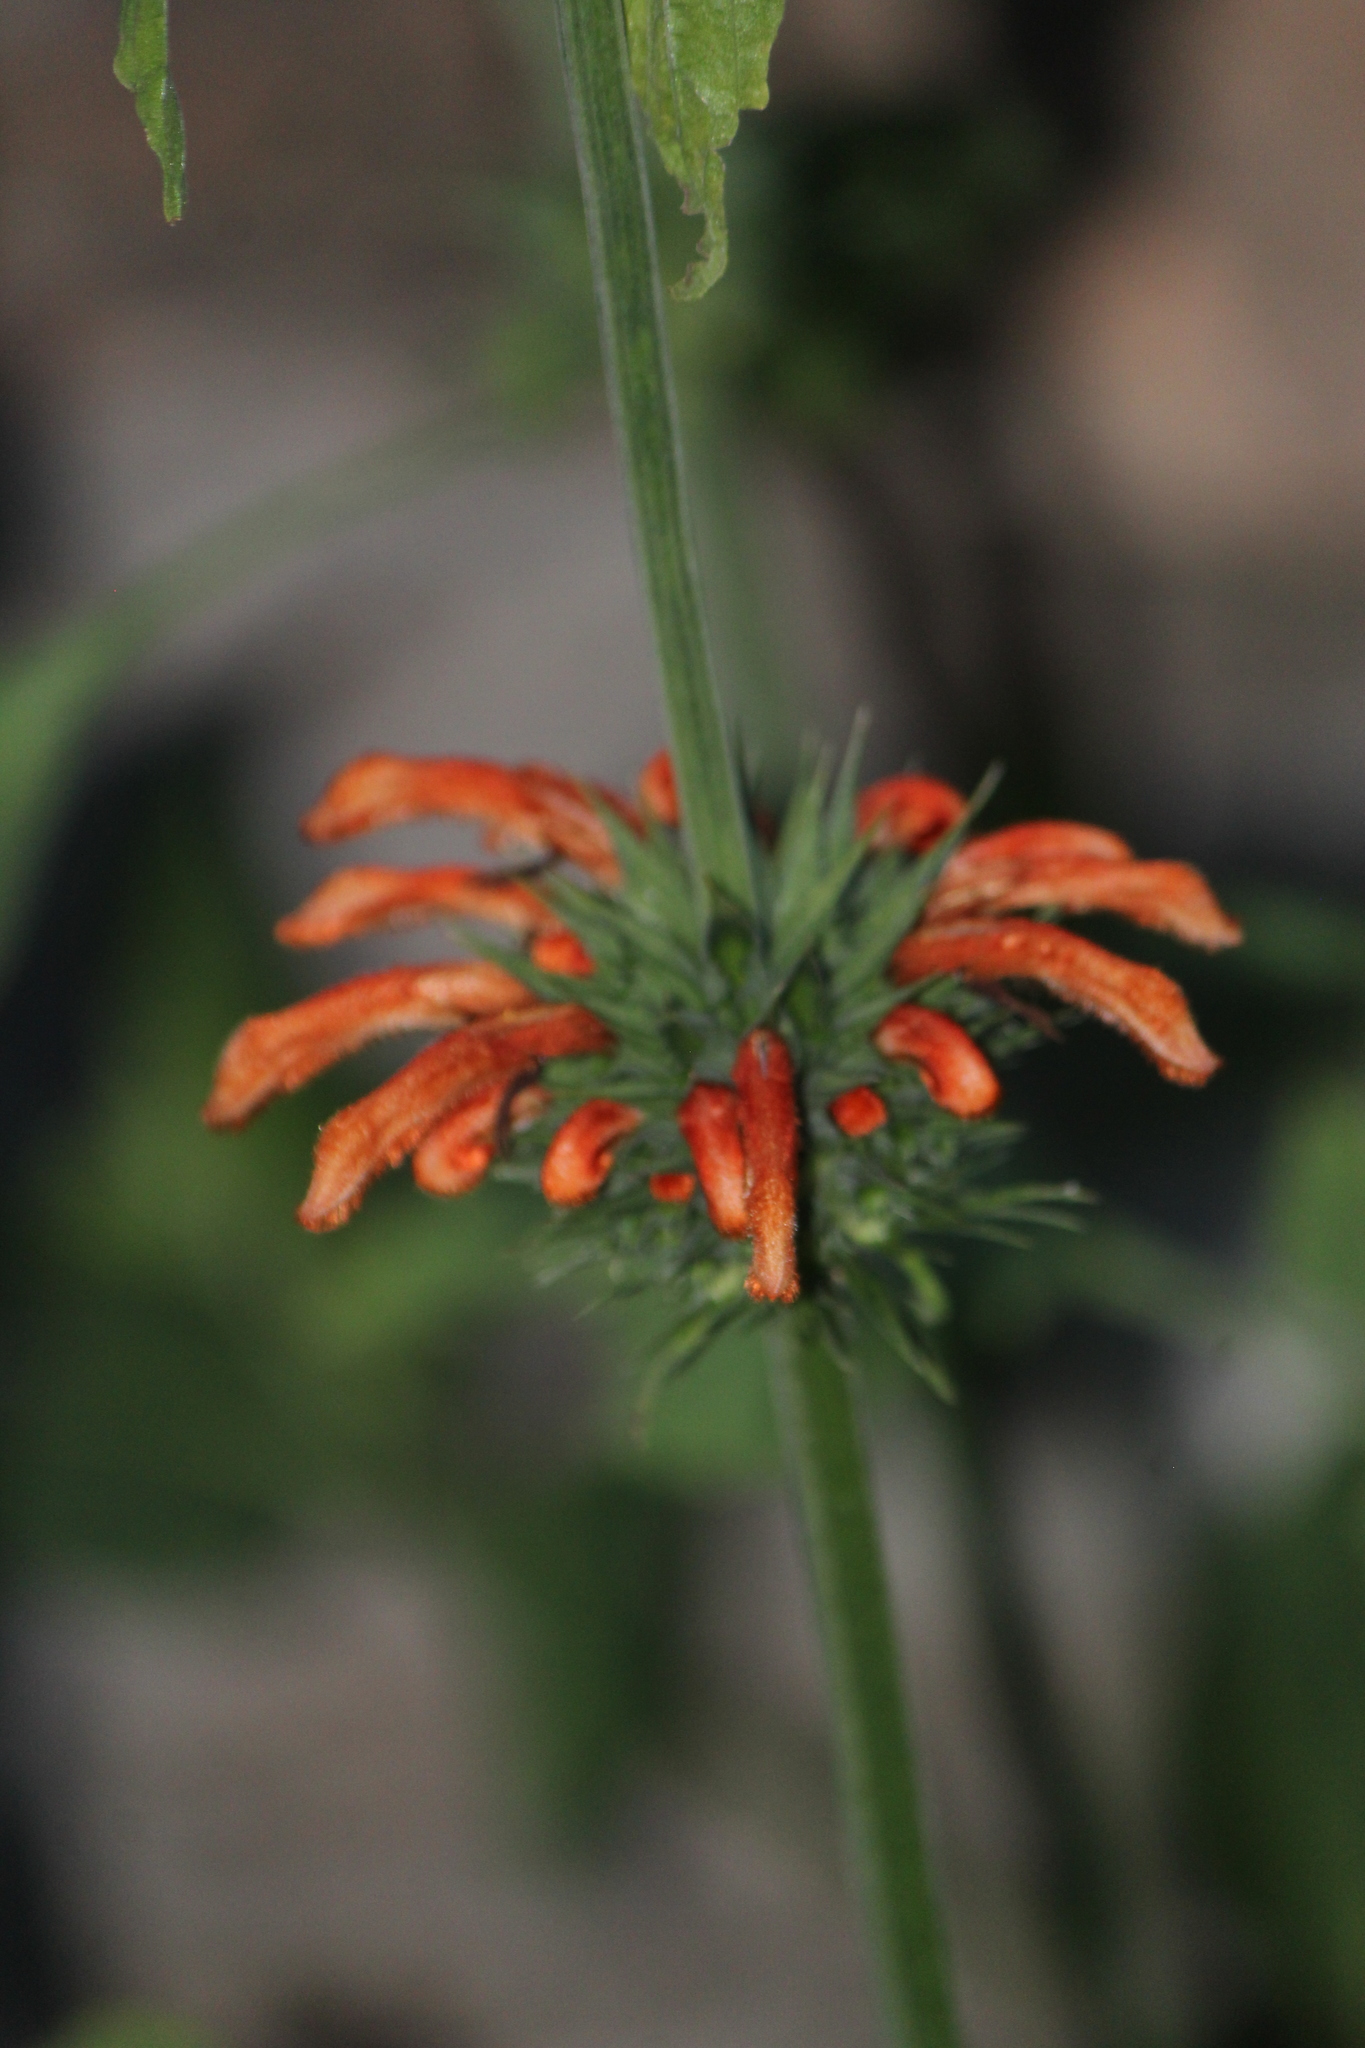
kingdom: Plantae
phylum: Tracheophyta
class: Magnoliopsida
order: Lamiales
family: Lamiaceae
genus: Leonotis
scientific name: Leonotis nepetifolia
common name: Christmas candlestick
